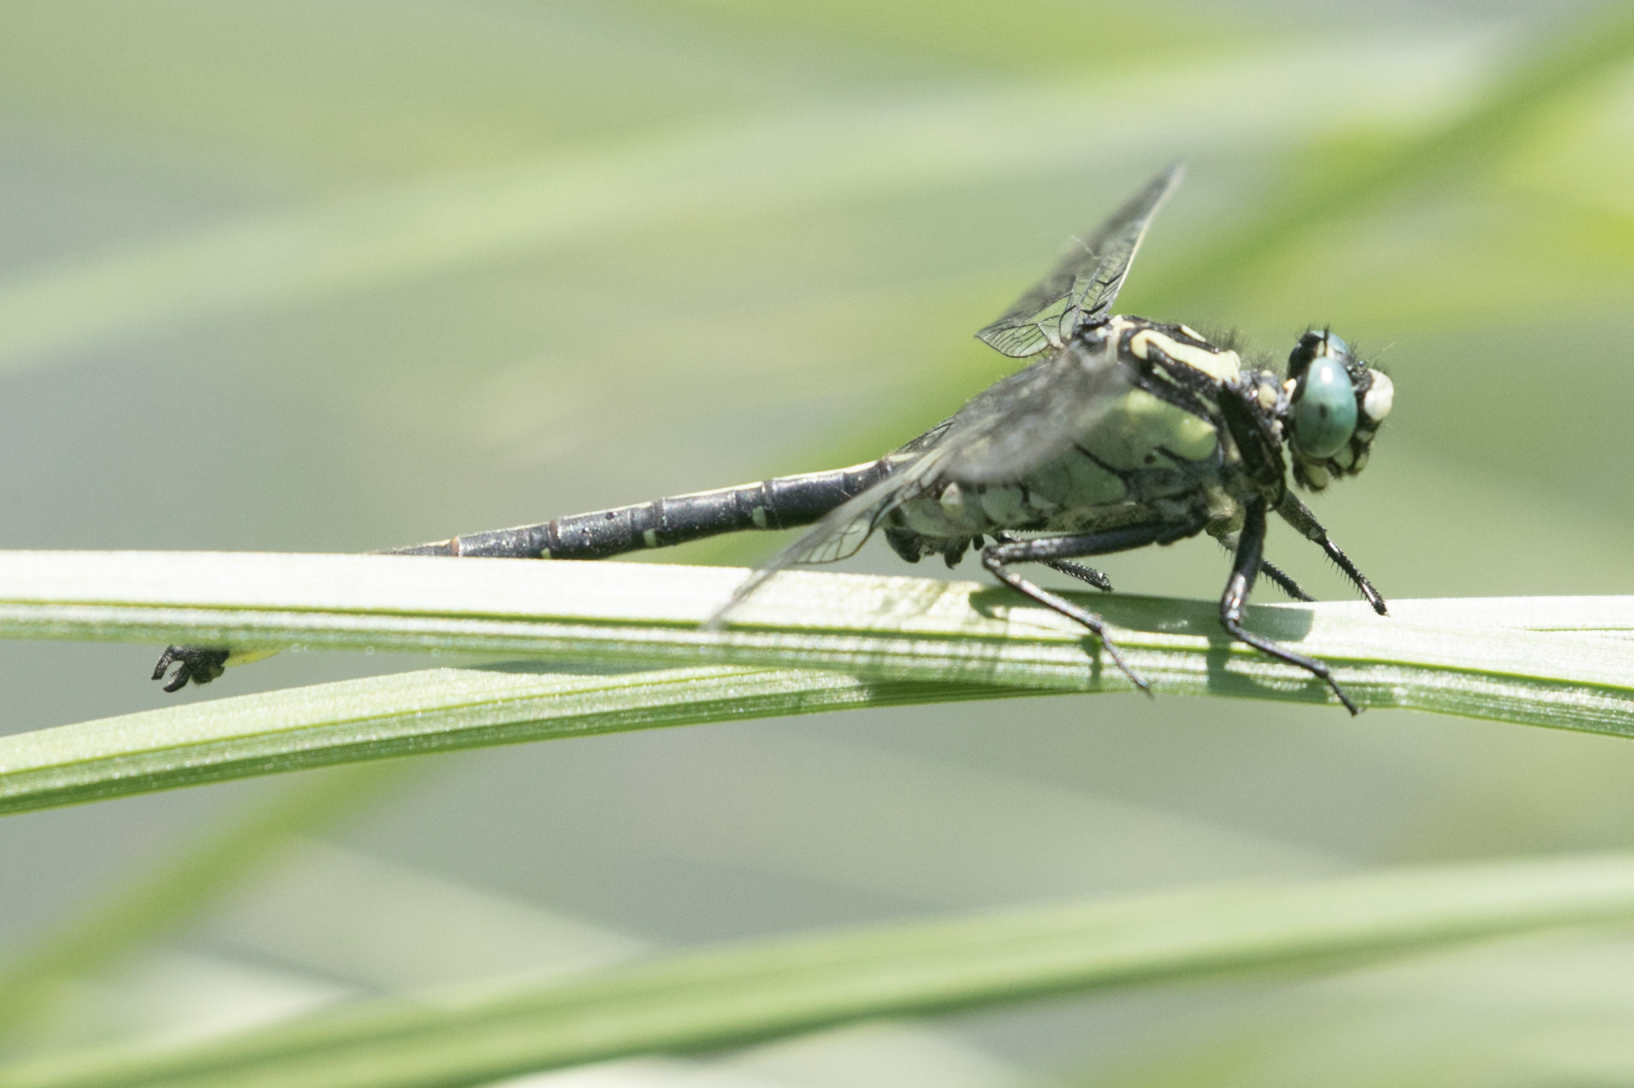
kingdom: Animalia
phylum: Arthropoda
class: Insecta
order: Odonata
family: Gomphidae
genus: Gomphus
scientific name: Gomphus vulgatissimus
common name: Club-tailed dragonfly
